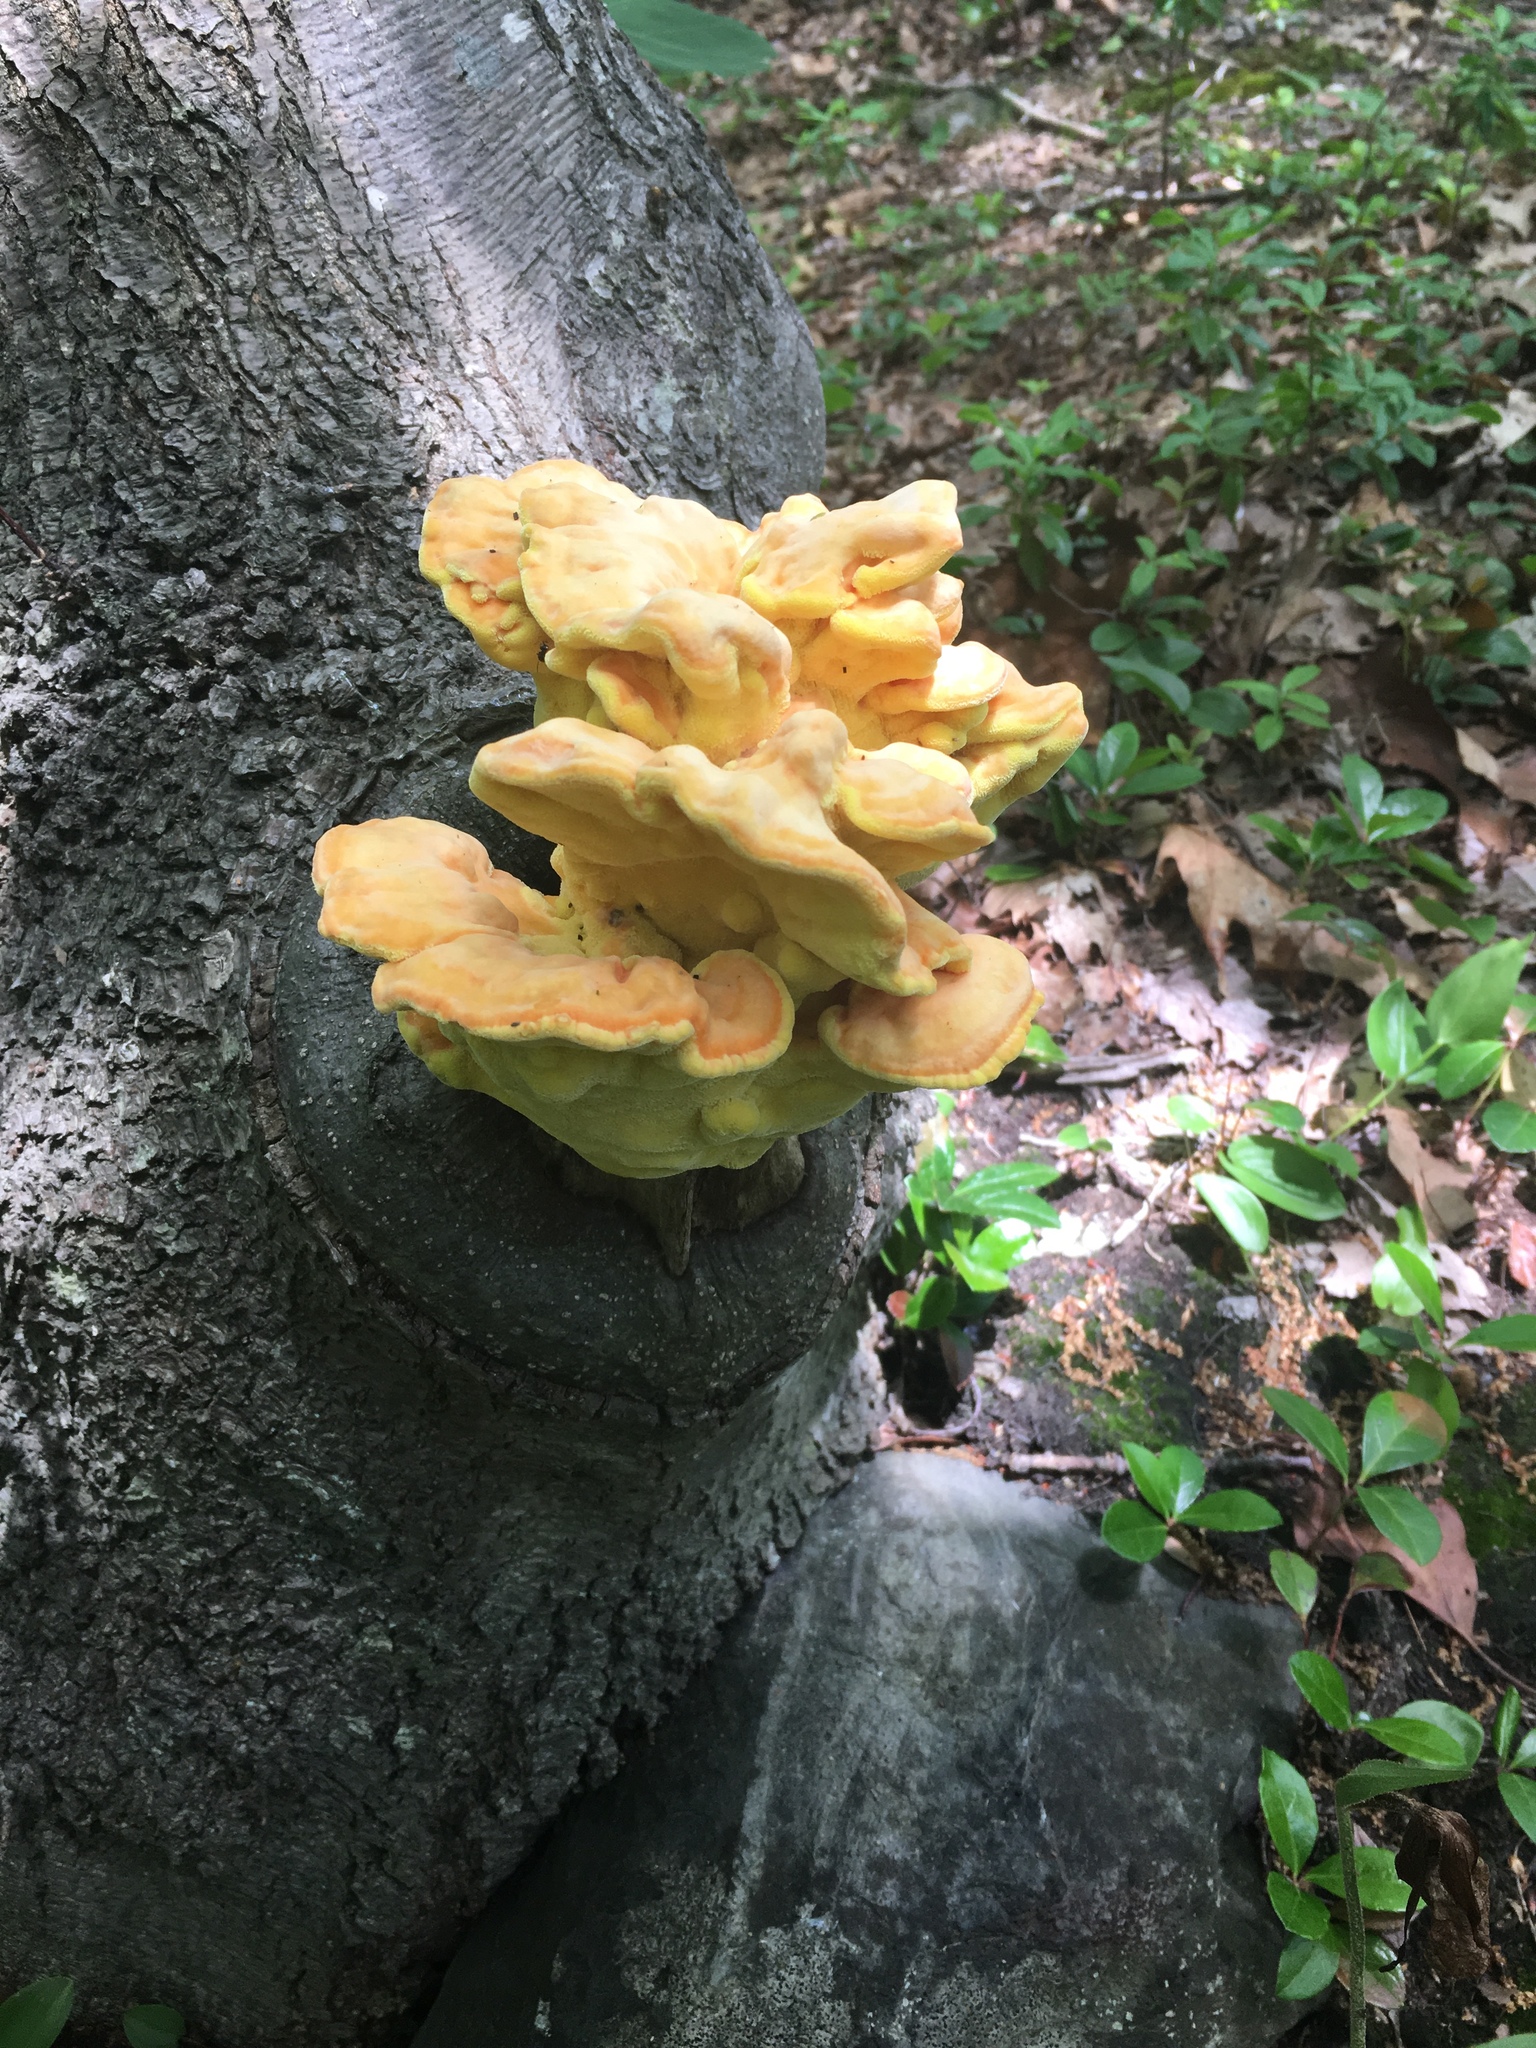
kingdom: Fungi
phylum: Basidiomycota
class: Agaricomycetes
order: Polyporales
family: Laetiporaceae
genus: Laetiporus
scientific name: Laetiporus sulphureus
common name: Chicken of the woods
